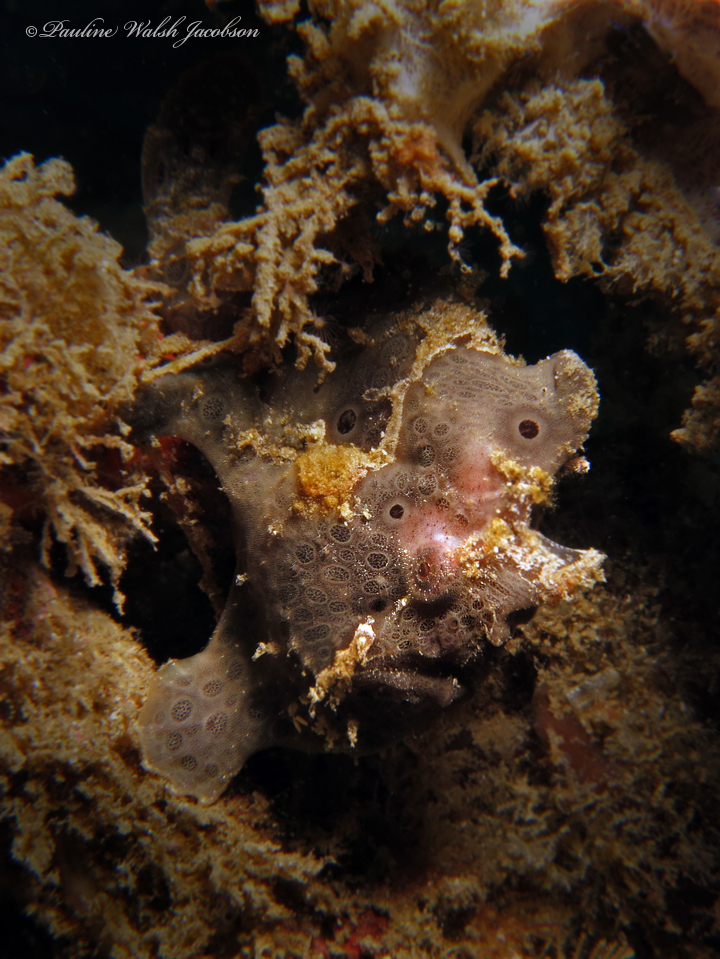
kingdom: Animalia
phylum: Chordata
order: Lophiiformes
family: Antennariidae
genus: Antennarius
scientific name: Antennarius pictus
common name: Painted frogfish
